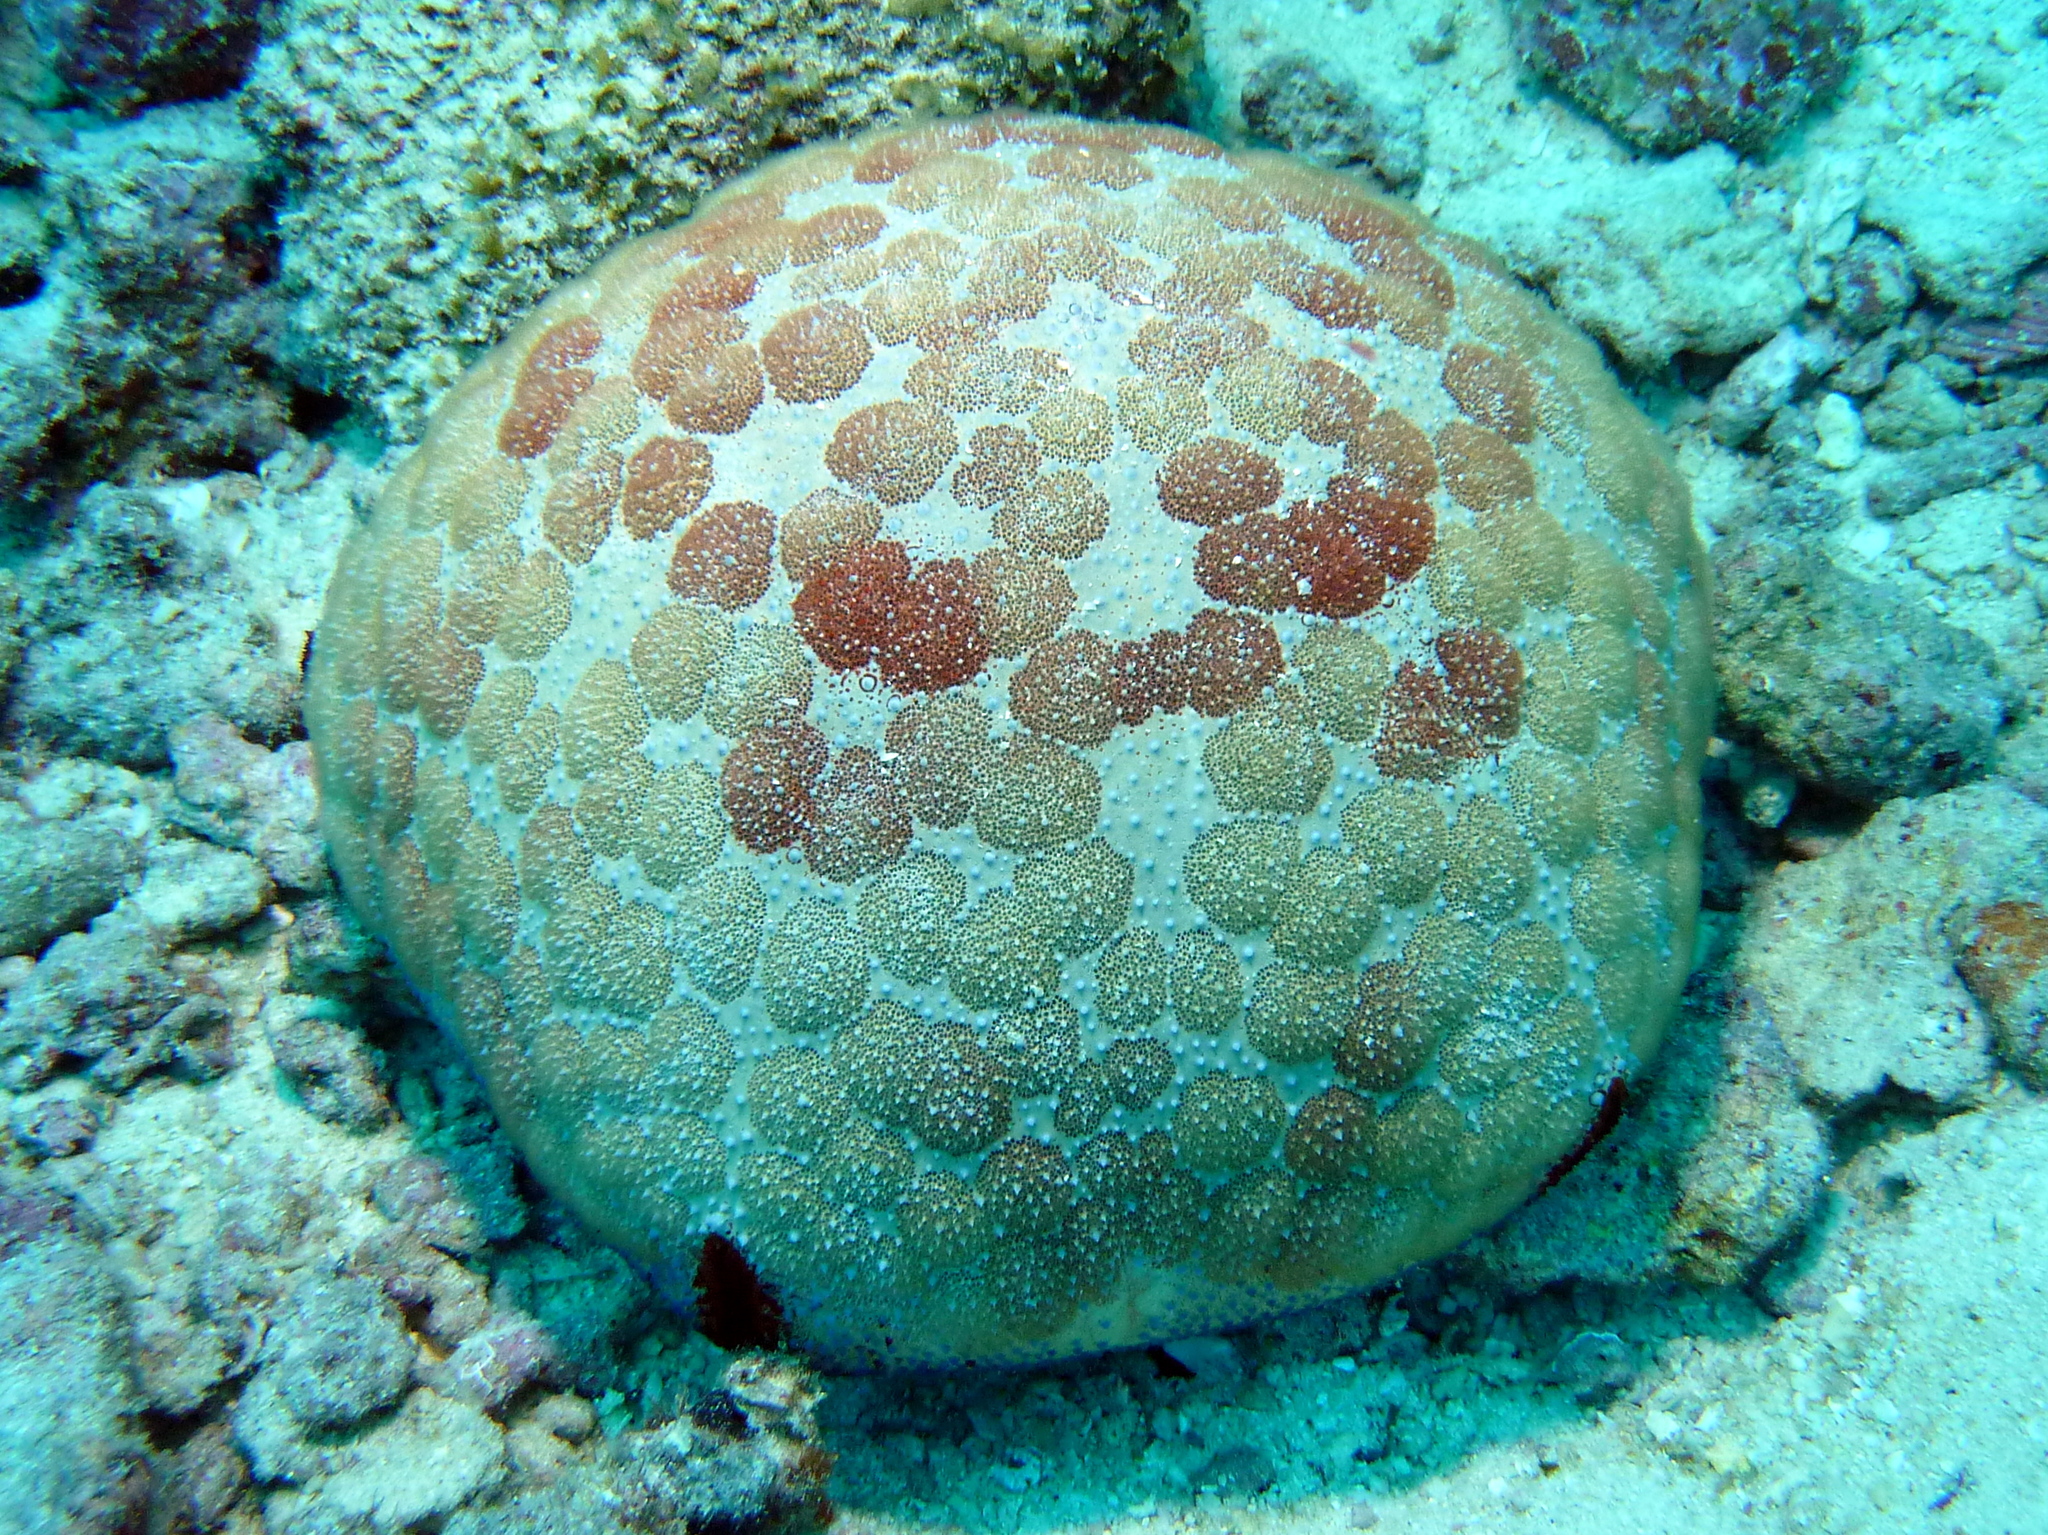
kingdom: Animalia
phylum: Echinodermata
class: Asteroidea
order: Valvatida
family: Oreasteridae
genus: Culcita
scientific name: Culcita novaeguineae
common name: Cushion star
